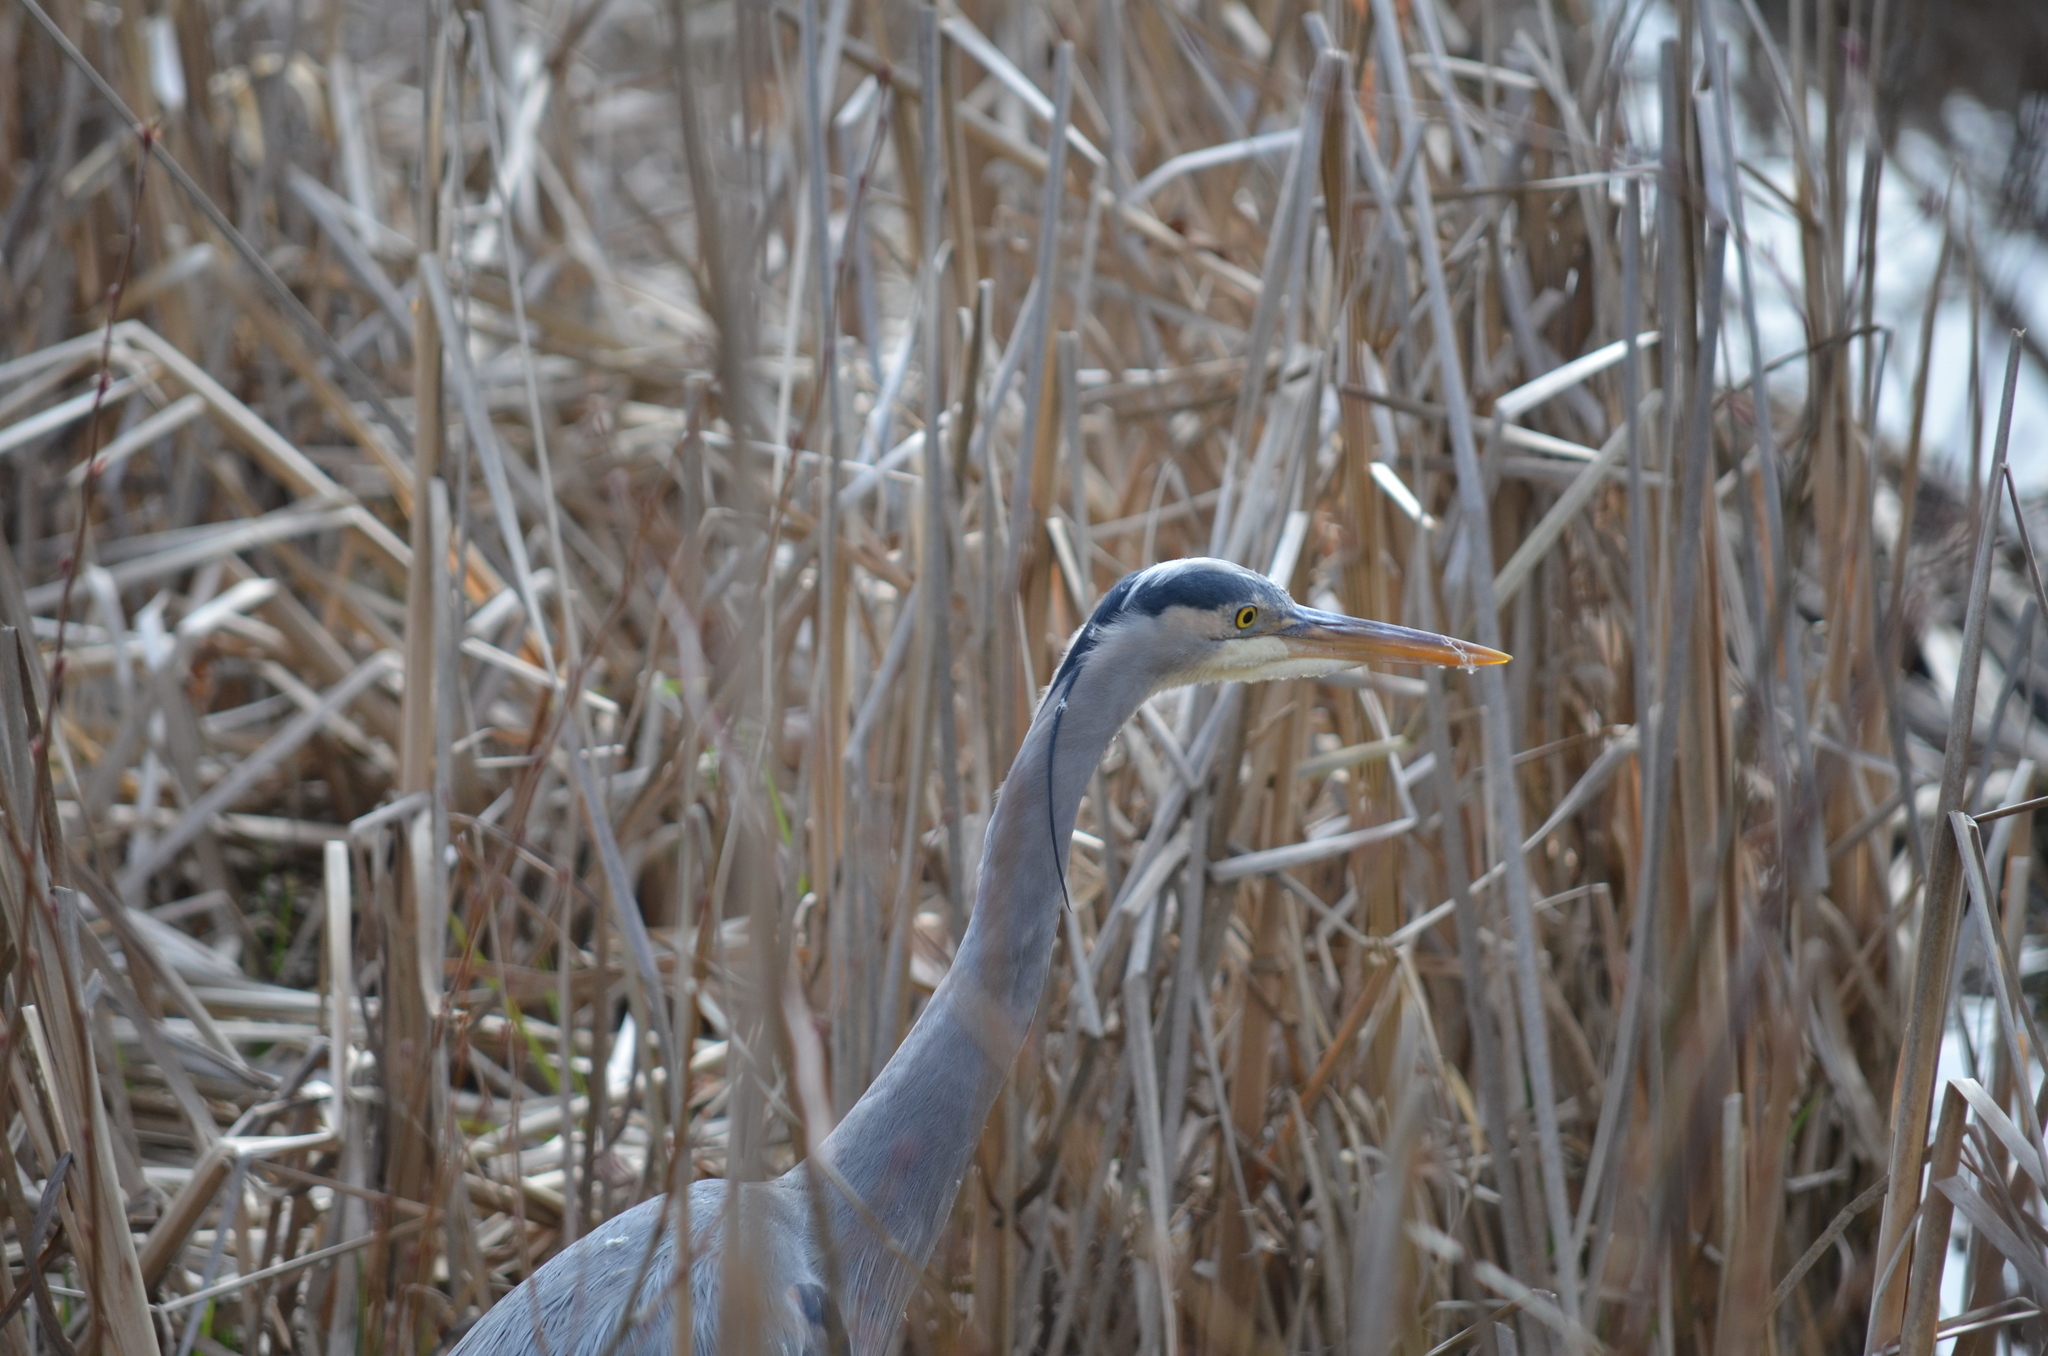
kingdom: Animalia
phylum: Chordata
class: Aves
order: Pelecaniformes
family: Ardeidae
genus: Ardea
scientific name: Ardea herodias
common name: Great blue heron
